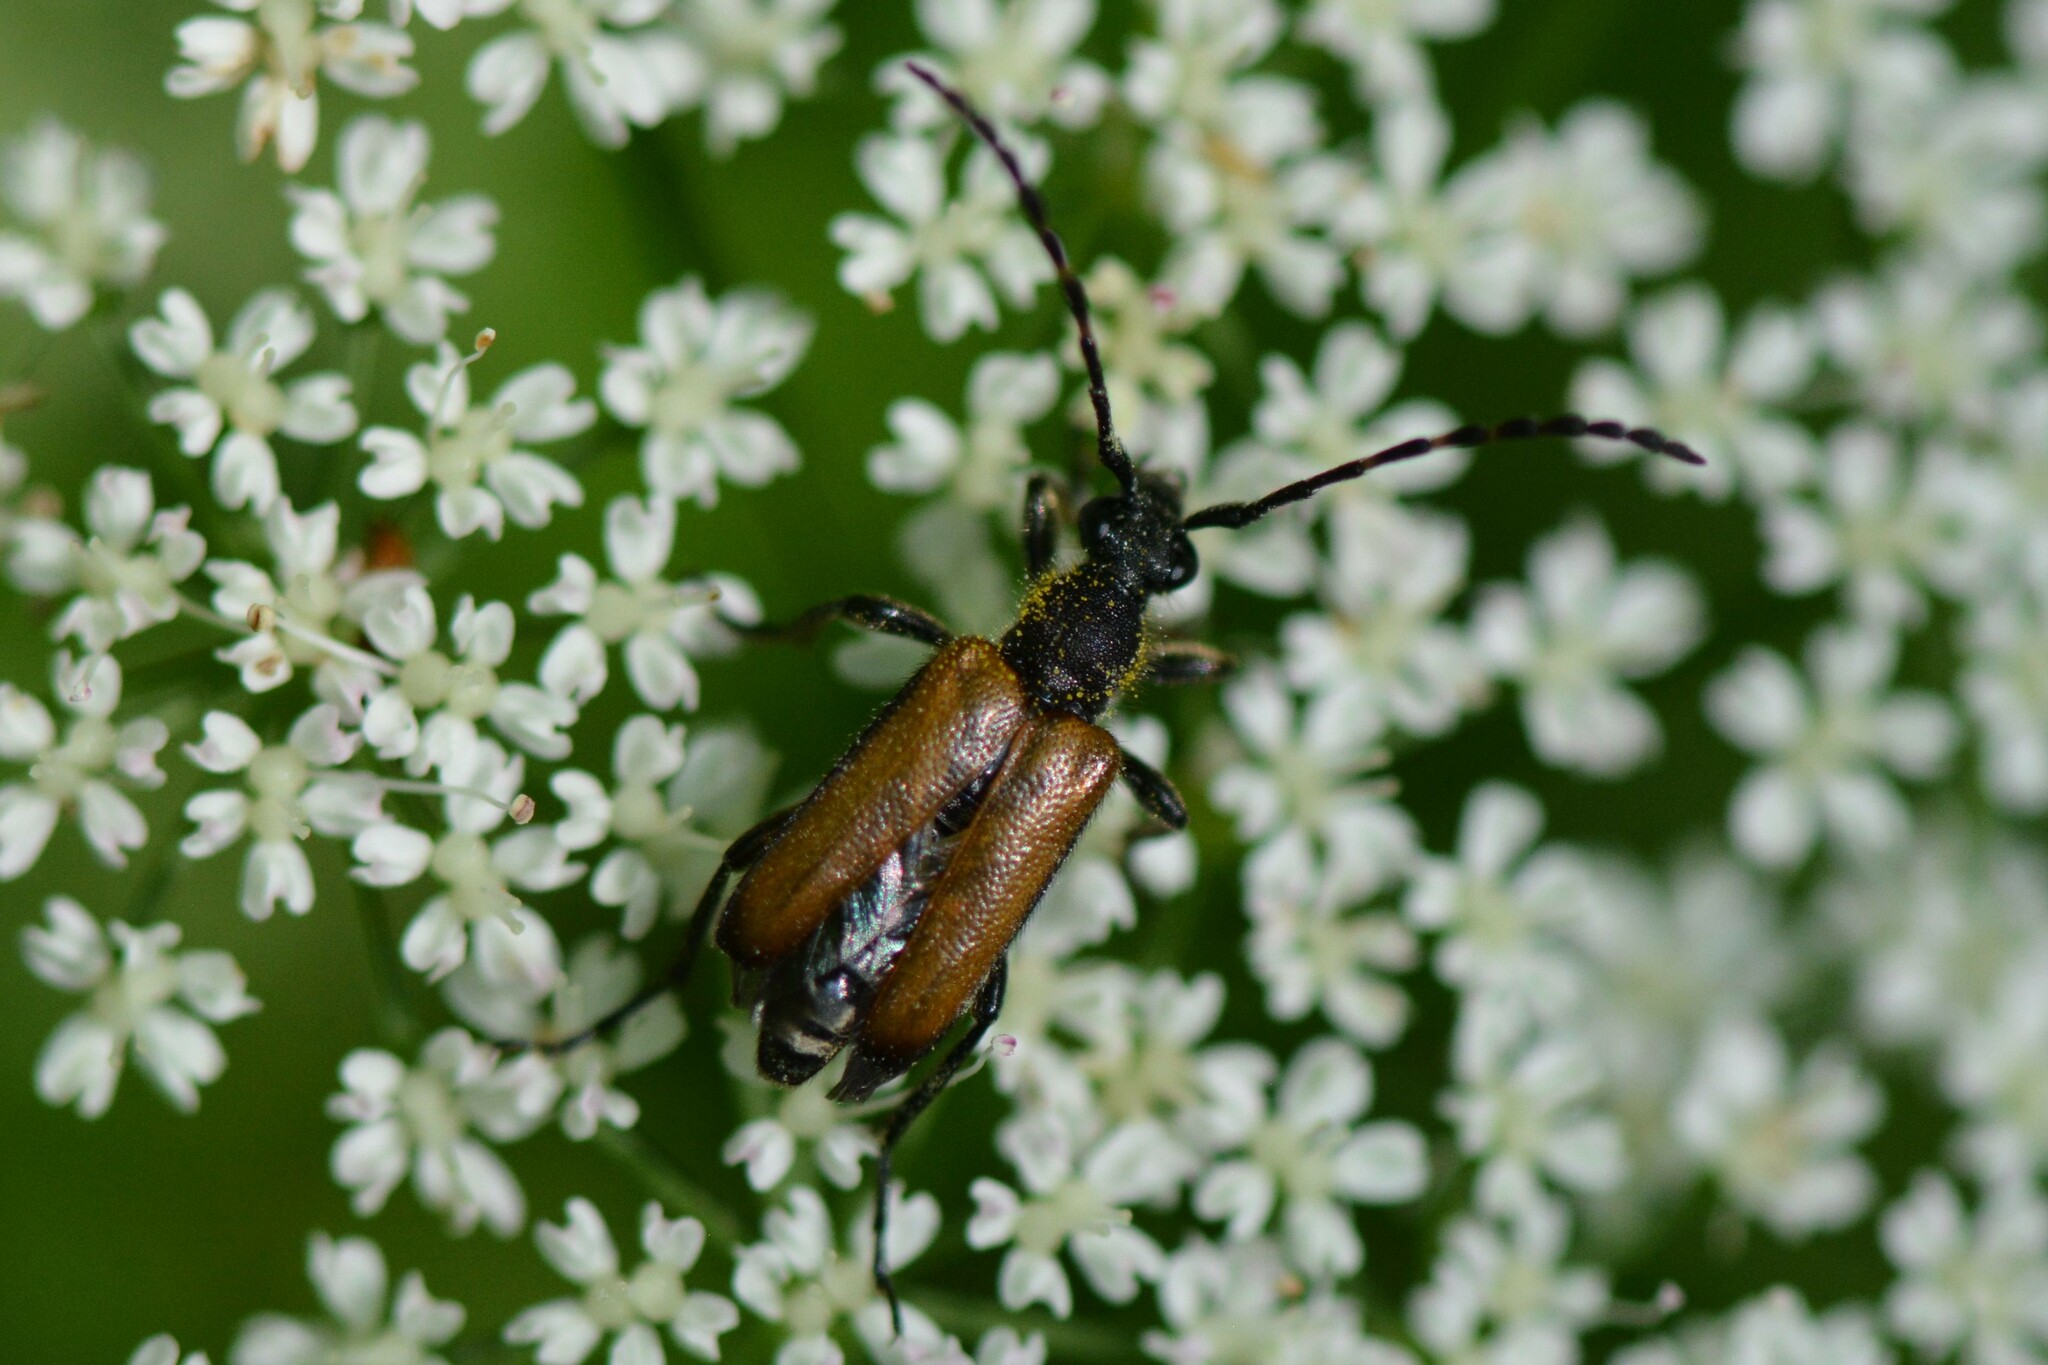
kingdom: Animalia
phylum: Arthropoda
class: Insecta
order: Coleoptera
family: Cerambycidae
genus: Paracorymbia
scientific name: Paracorymbia maculicornis
